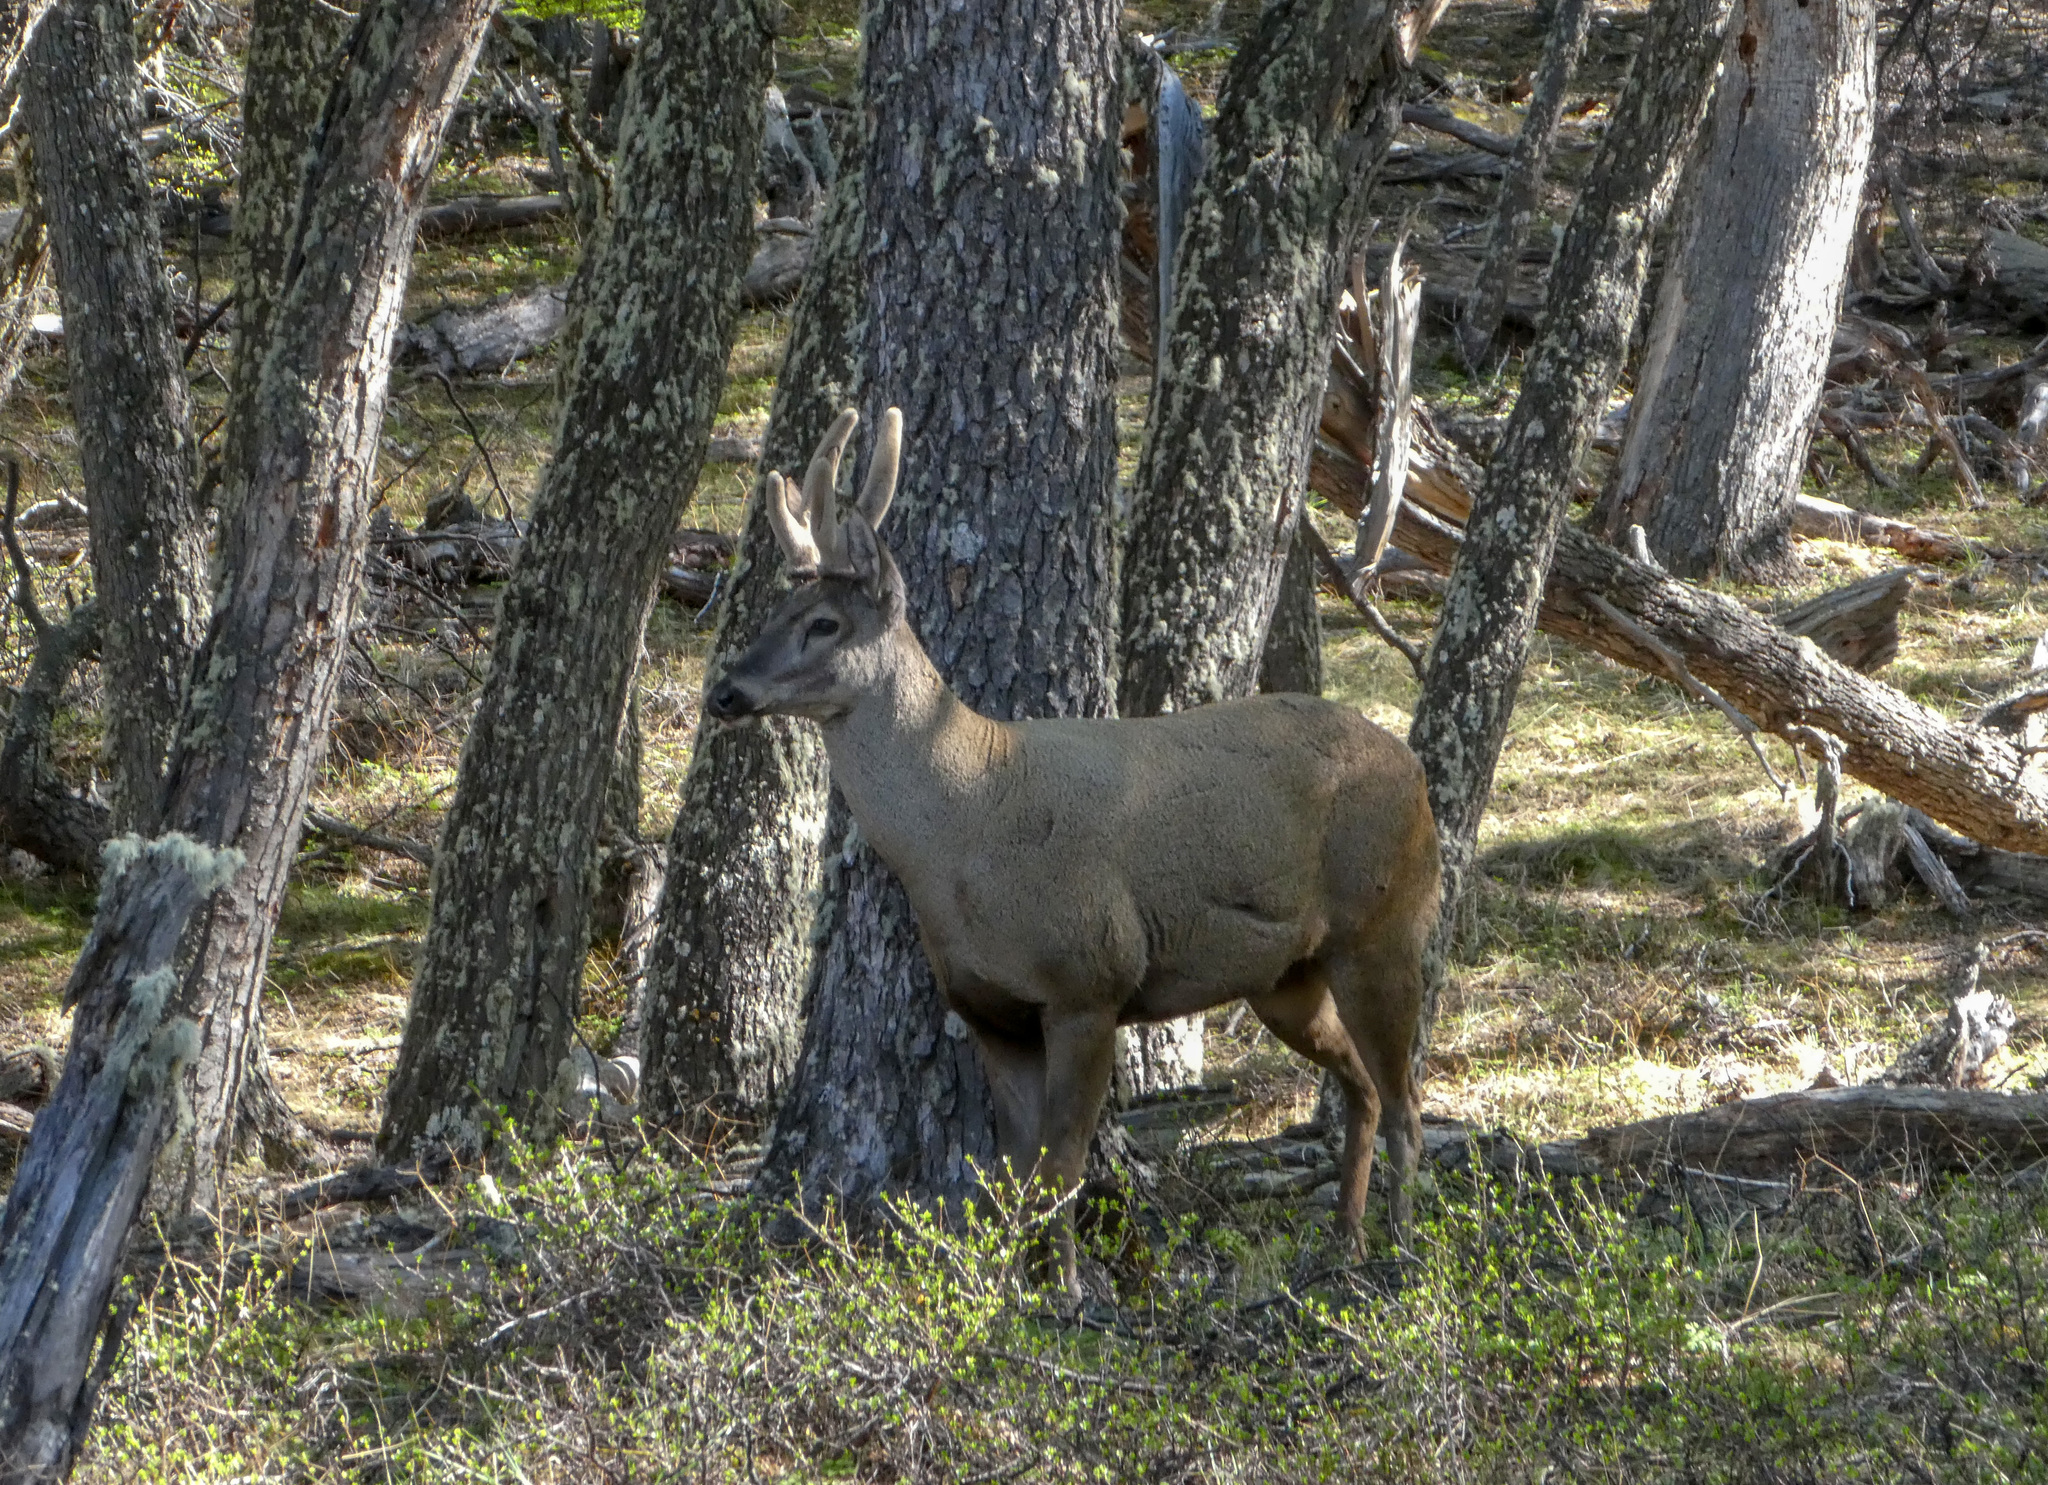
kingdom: Animalia
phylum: Chordata
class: Mammalia
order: Artiodactyla
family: Cervidae
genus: Hippocamelus
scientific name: Hippocamelus bisulcus
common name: South andean huemul
